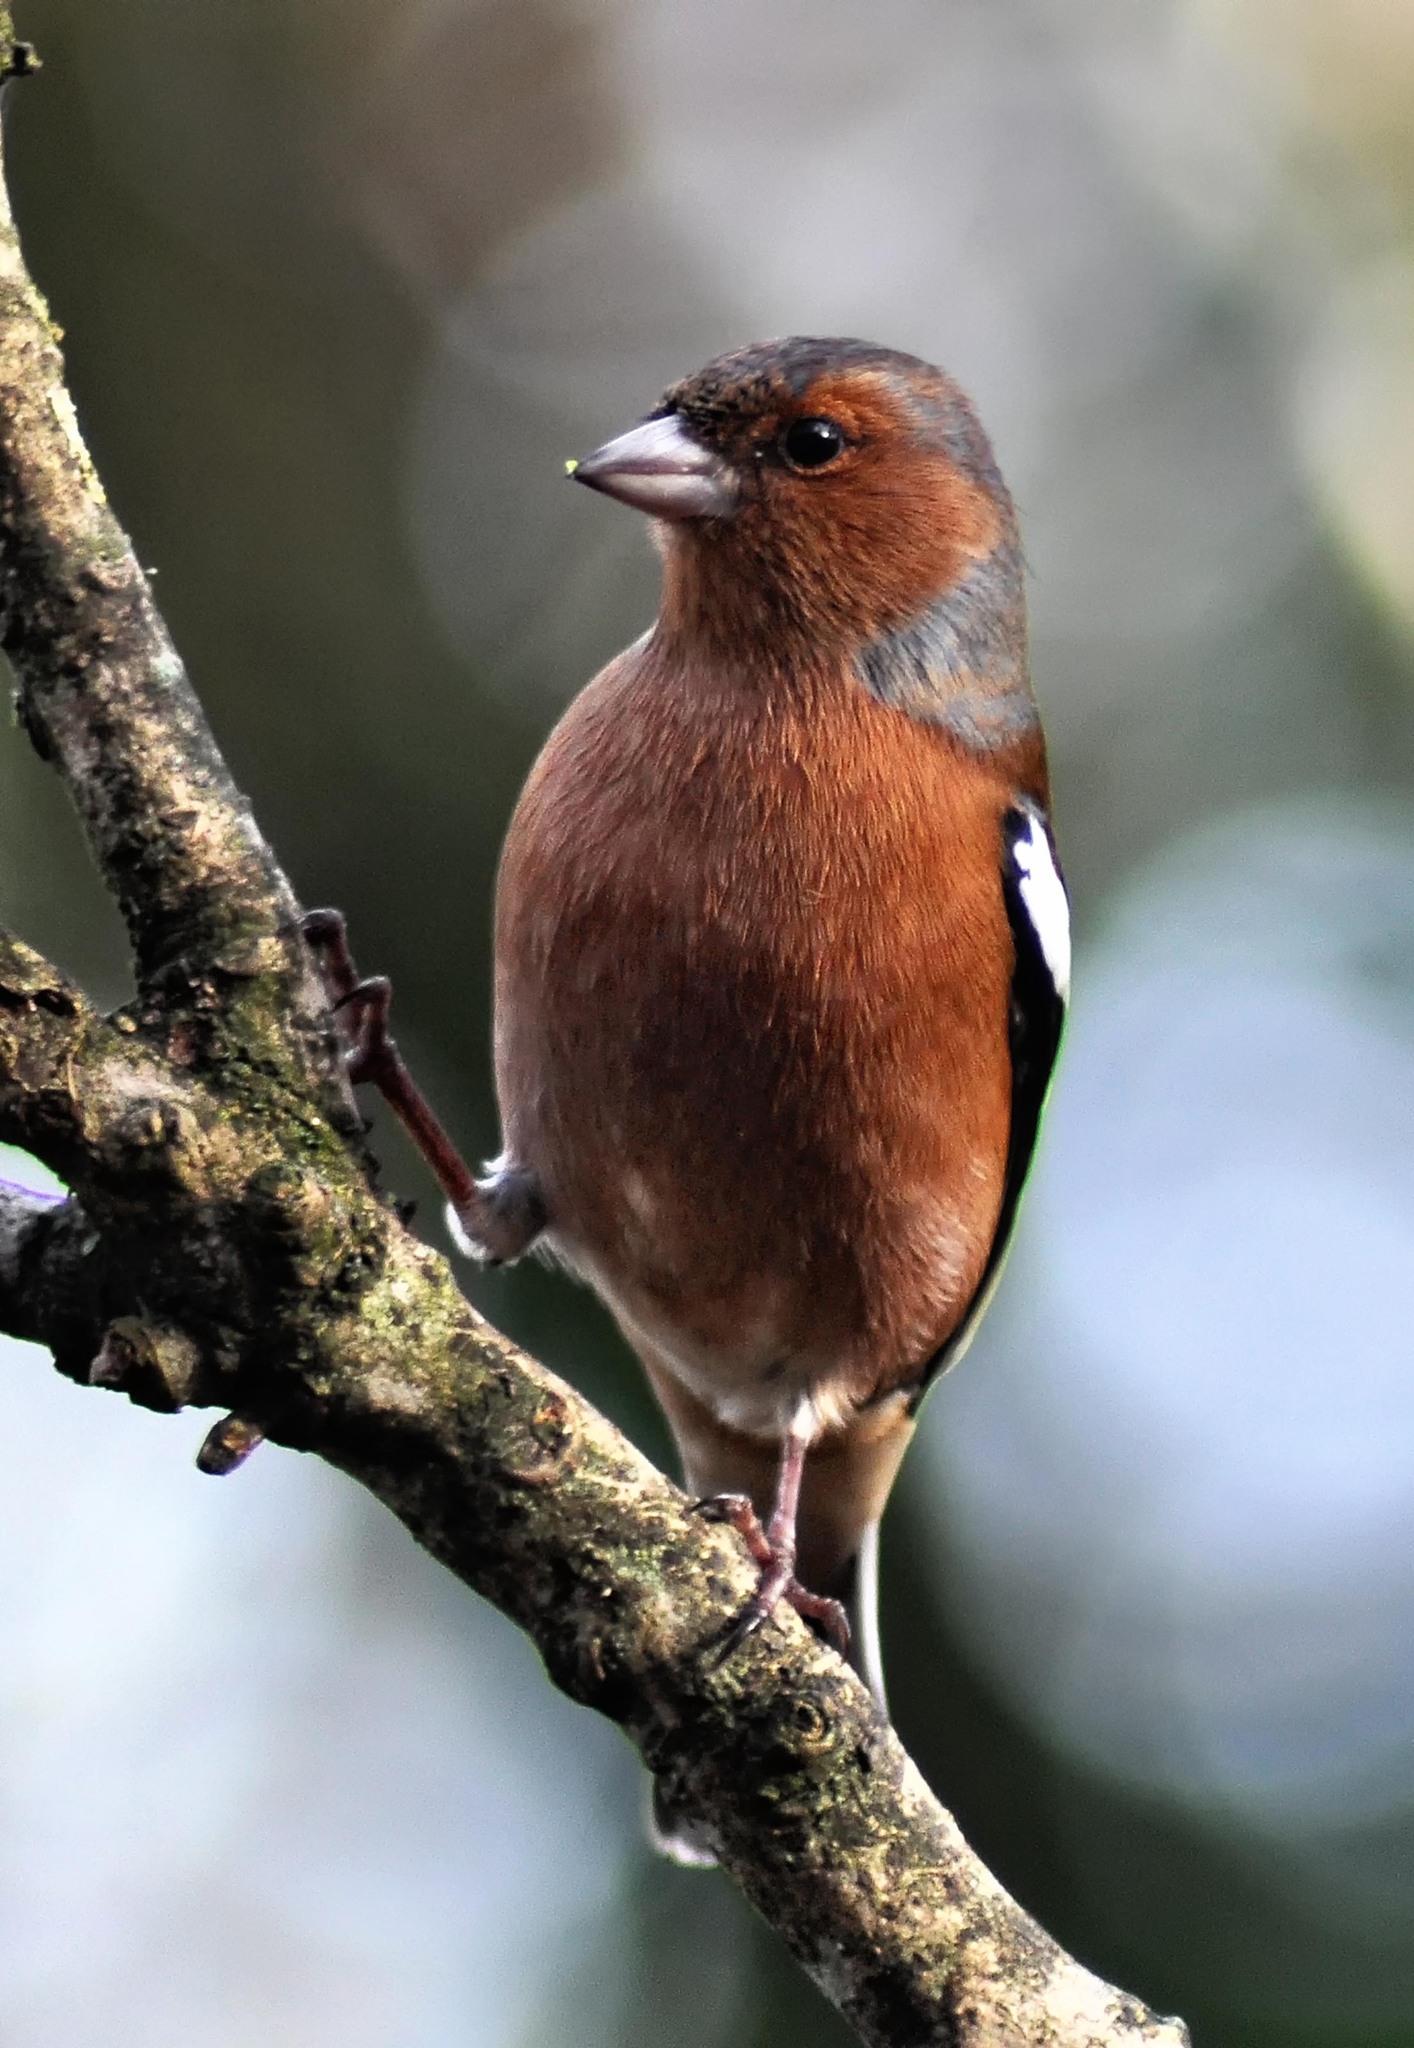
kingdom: Animalia
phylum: Chordata
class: Aves
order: Passeriformes
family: Fringillidae
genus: Fringilla
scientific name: Fringilla coelebs
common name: Common chaffinch
